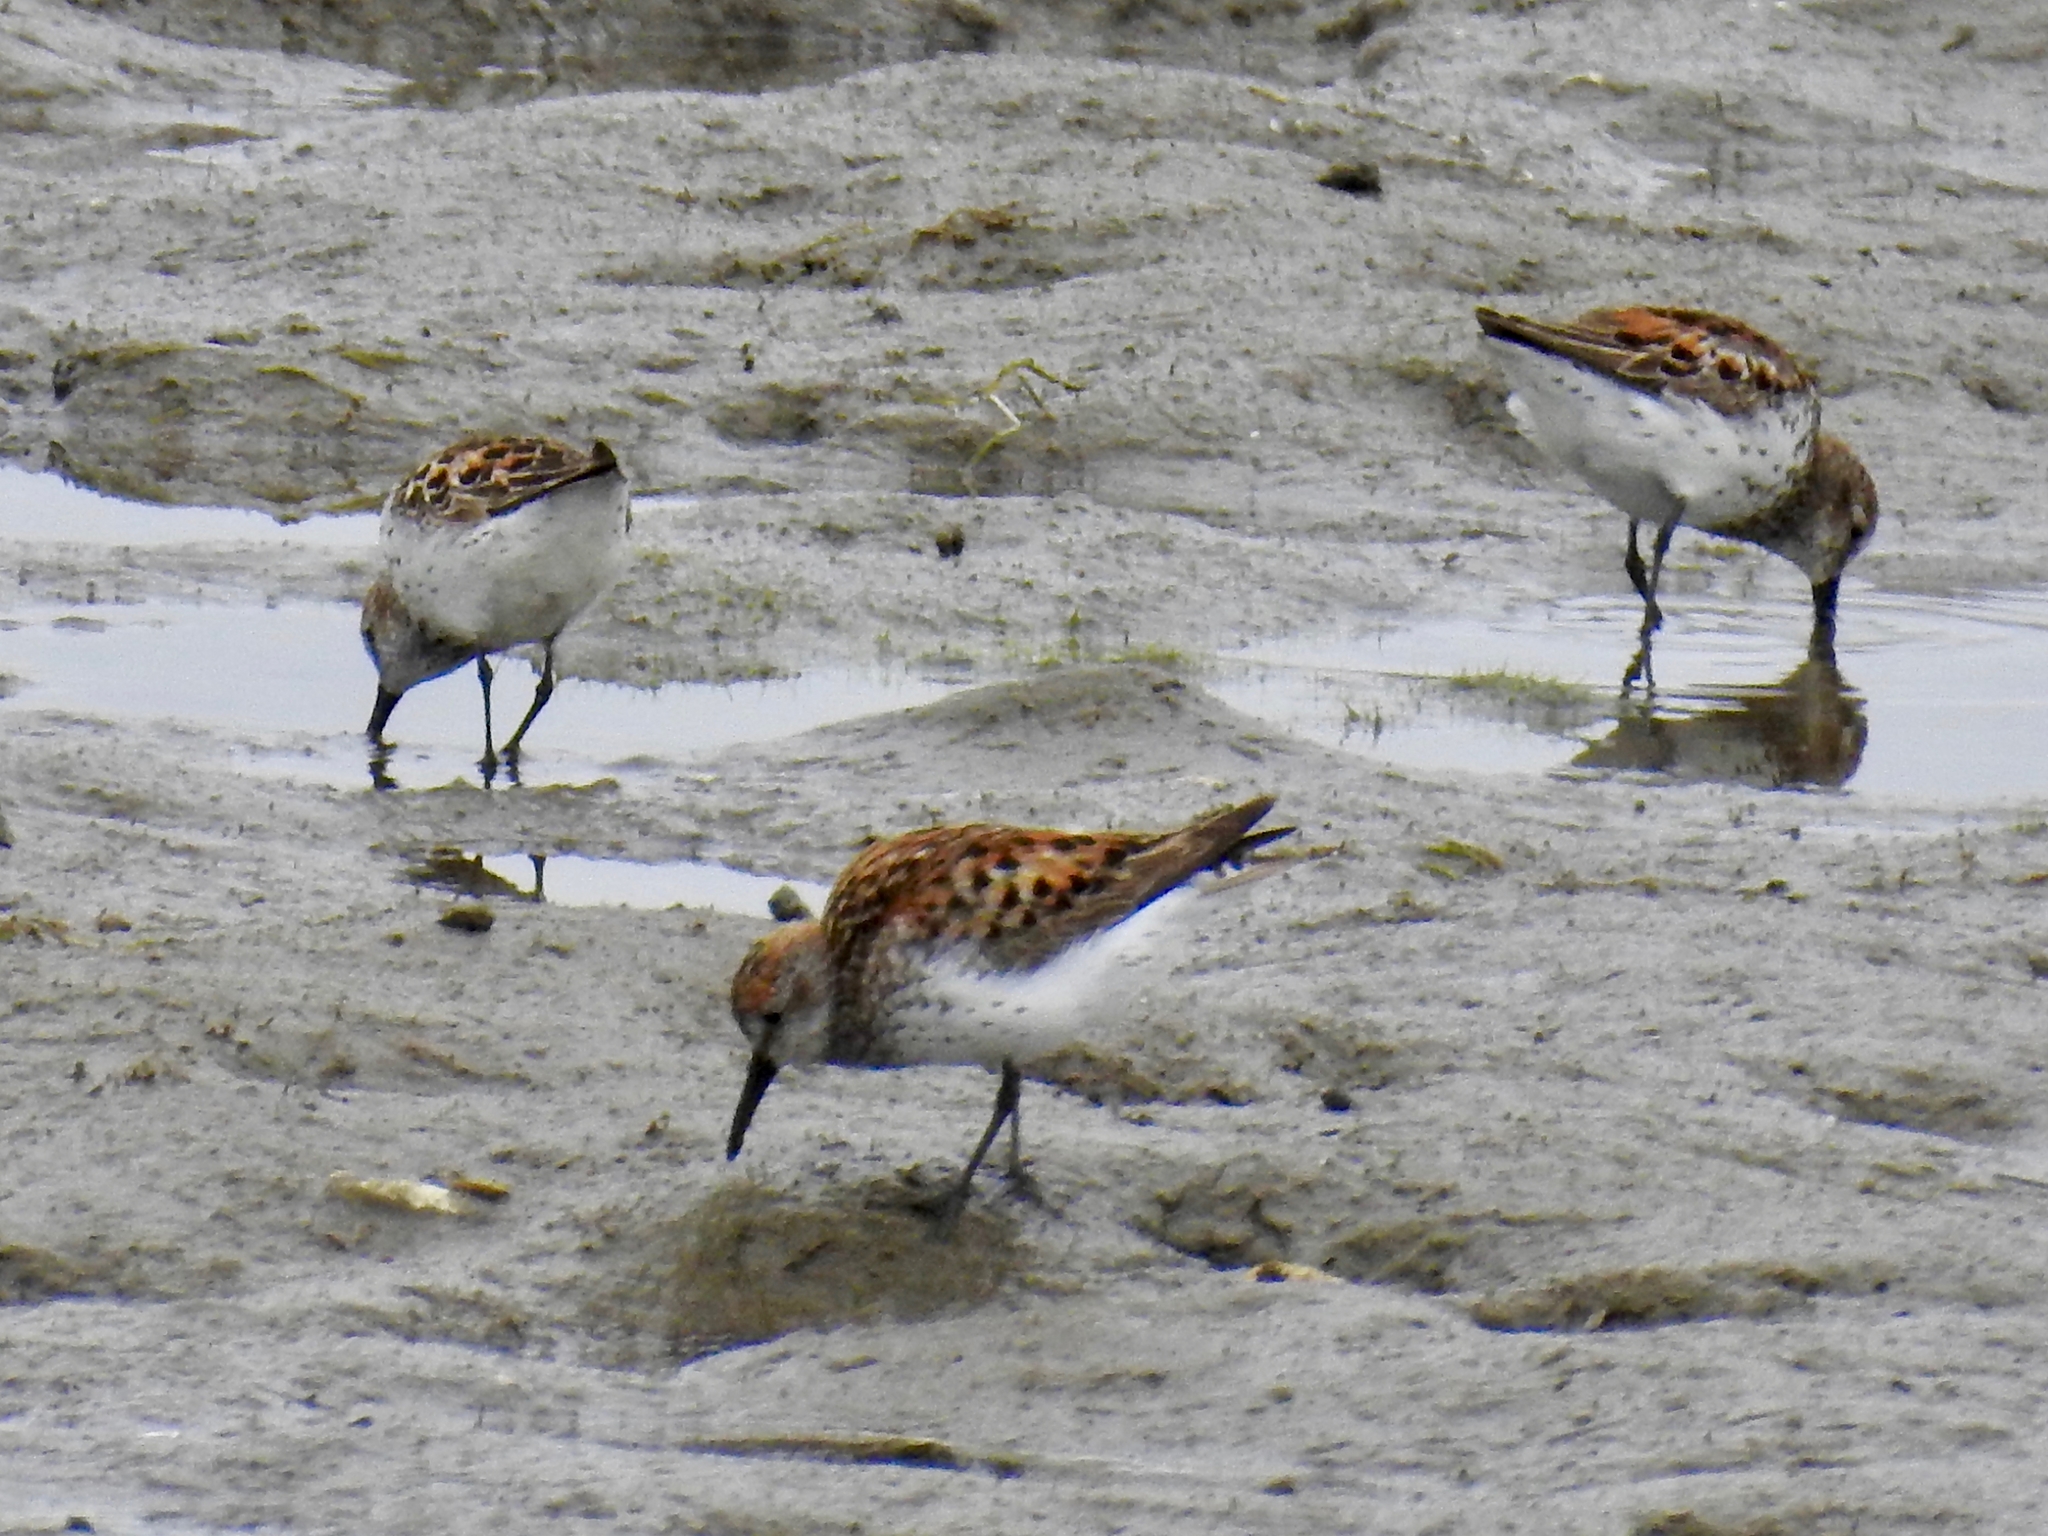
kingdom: Animalia
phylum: Chordata
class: Aves
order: Charadriiformes
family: Scolopacidae
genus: Calidris
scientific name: Calidris mauri
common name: Western sandpiper
